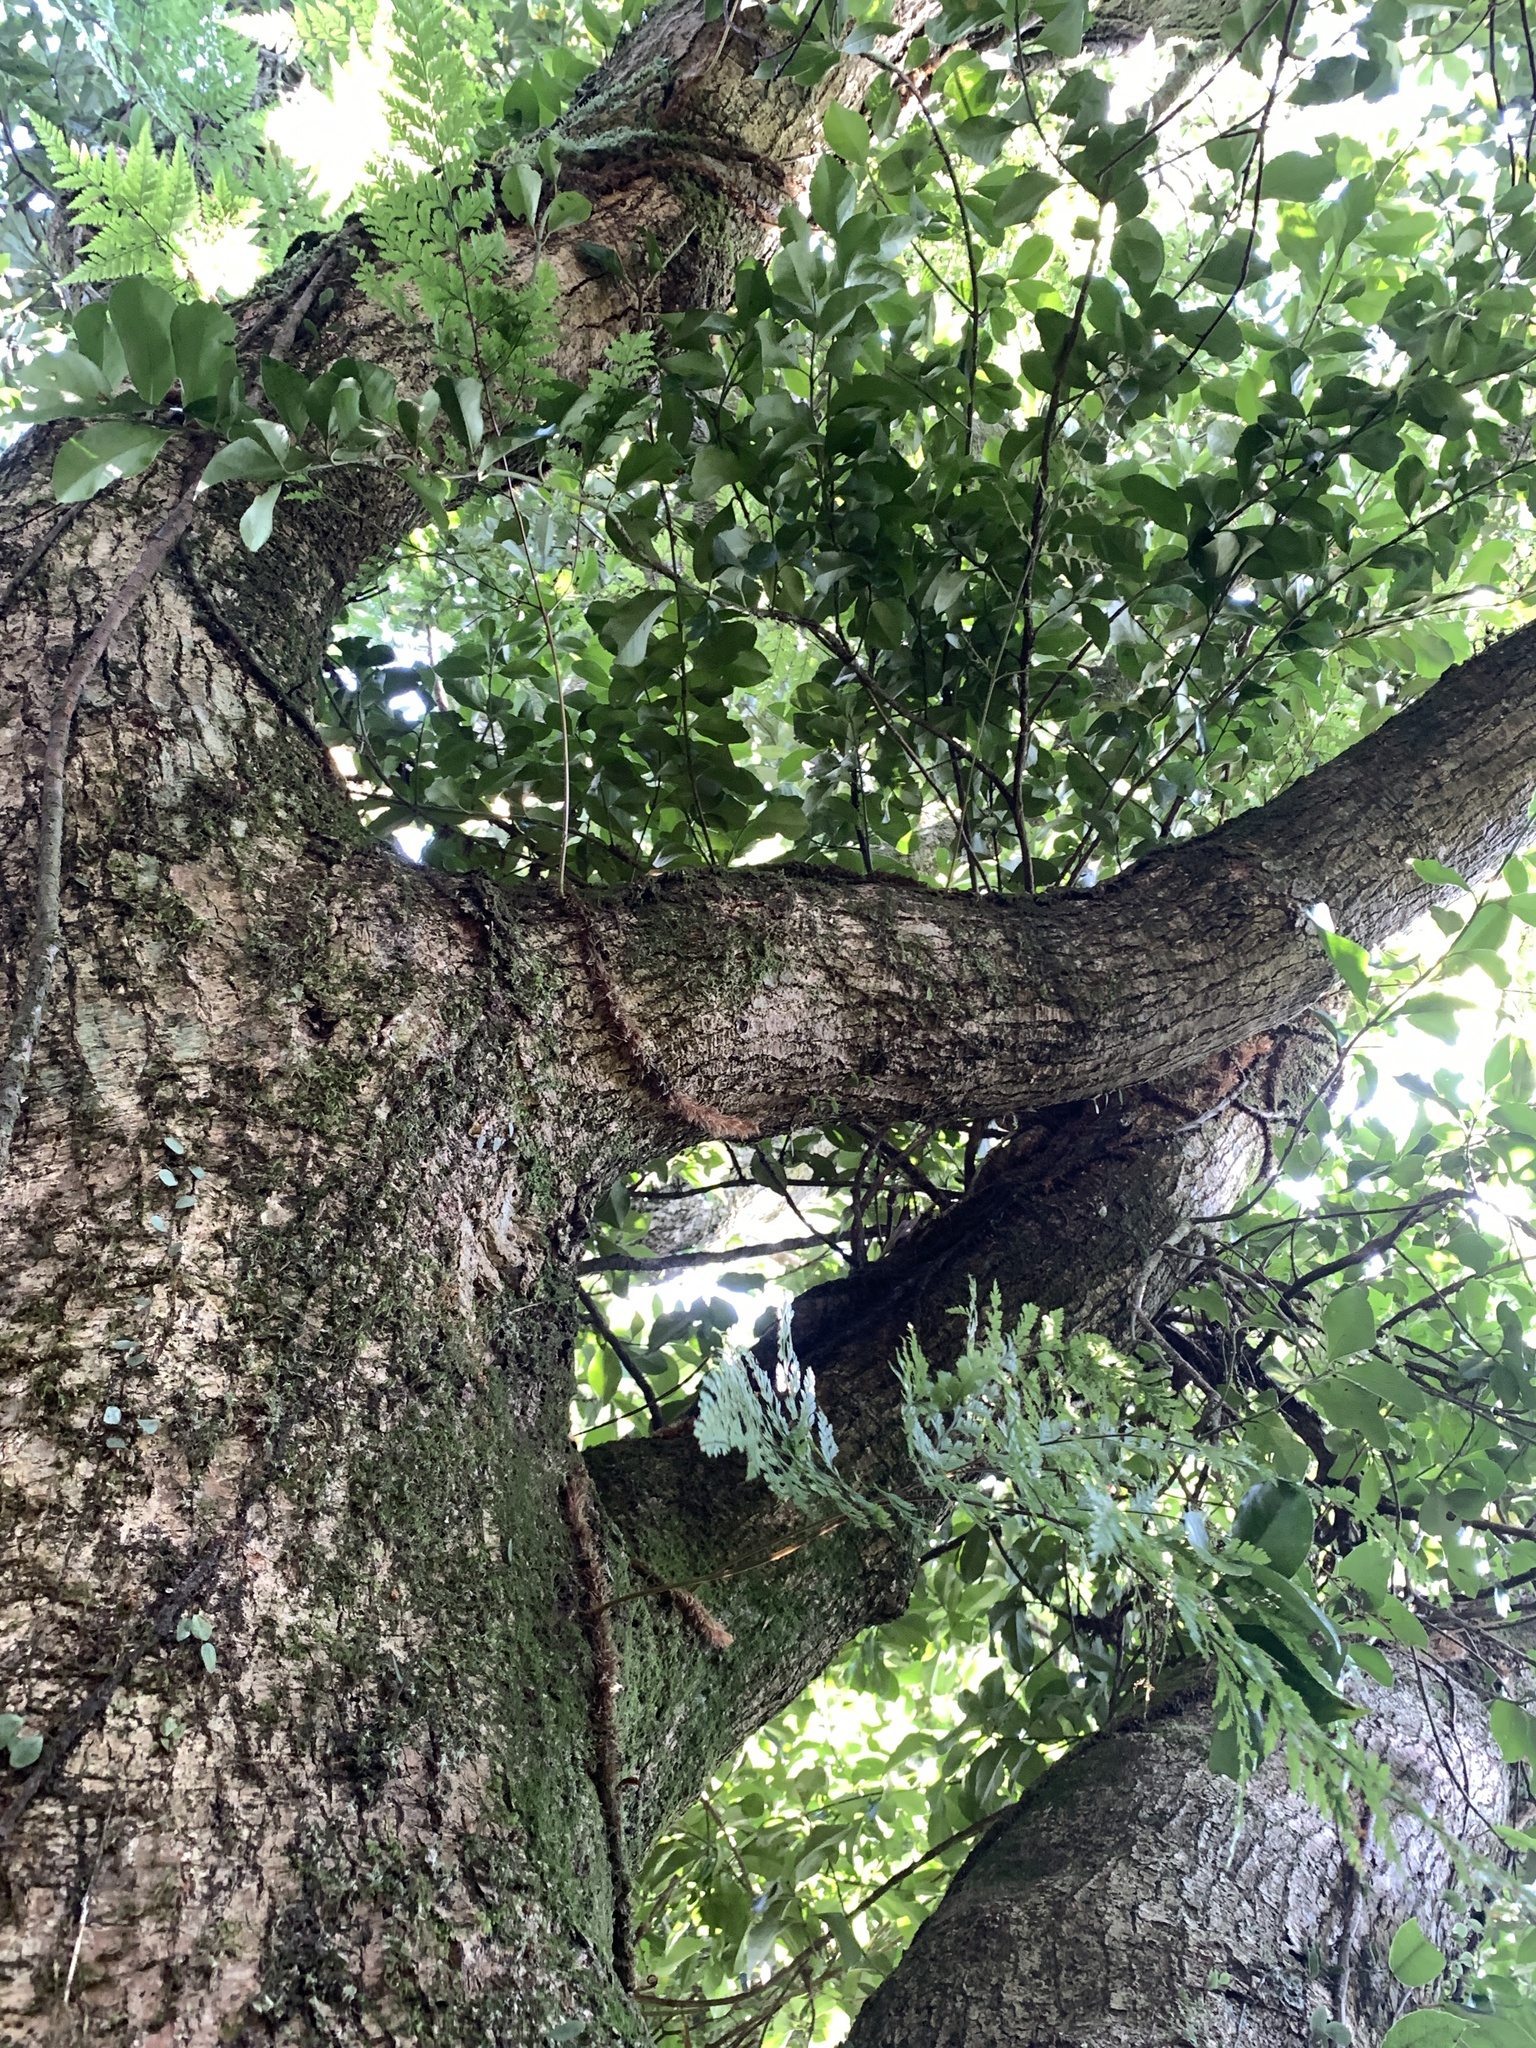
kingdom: Plantae
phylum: Tracheophyta
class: Polypodiopsida
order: Polypodiales
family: Davalliaceae
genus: Davallia
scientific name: Davallia trichomanoides
